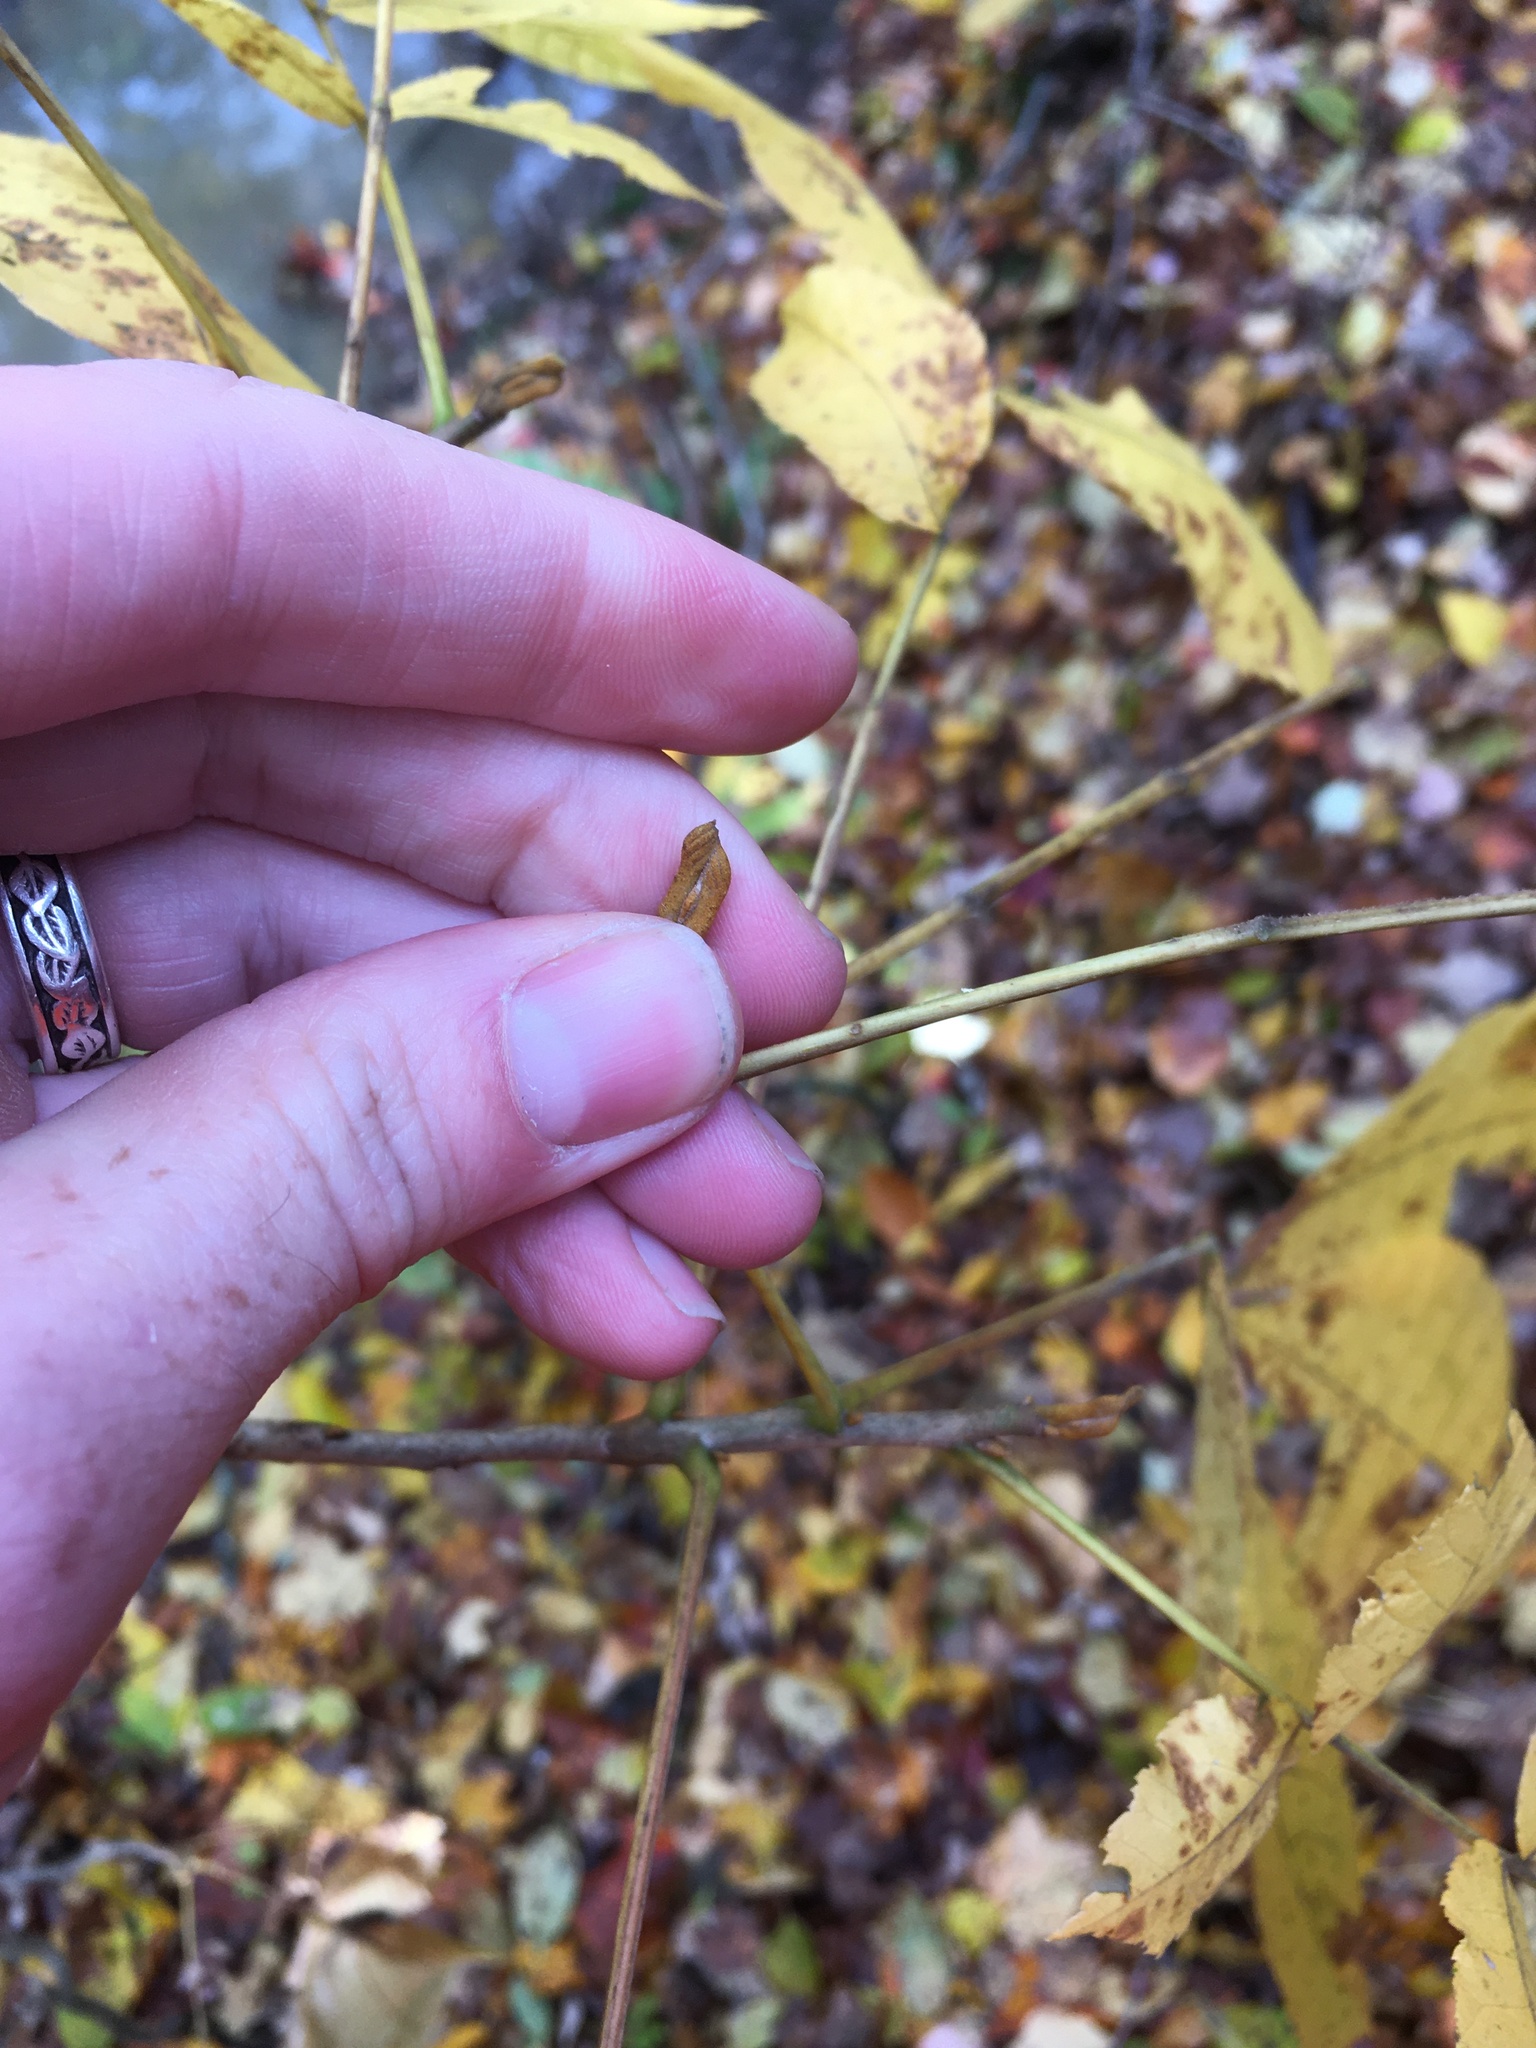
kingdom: Plantae
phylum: Tracheophyta
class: Magnoliopsida
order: Fagales
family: Juglandaceae
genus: Carya
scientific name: Carya cordiformis
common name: Bitternut hickory
